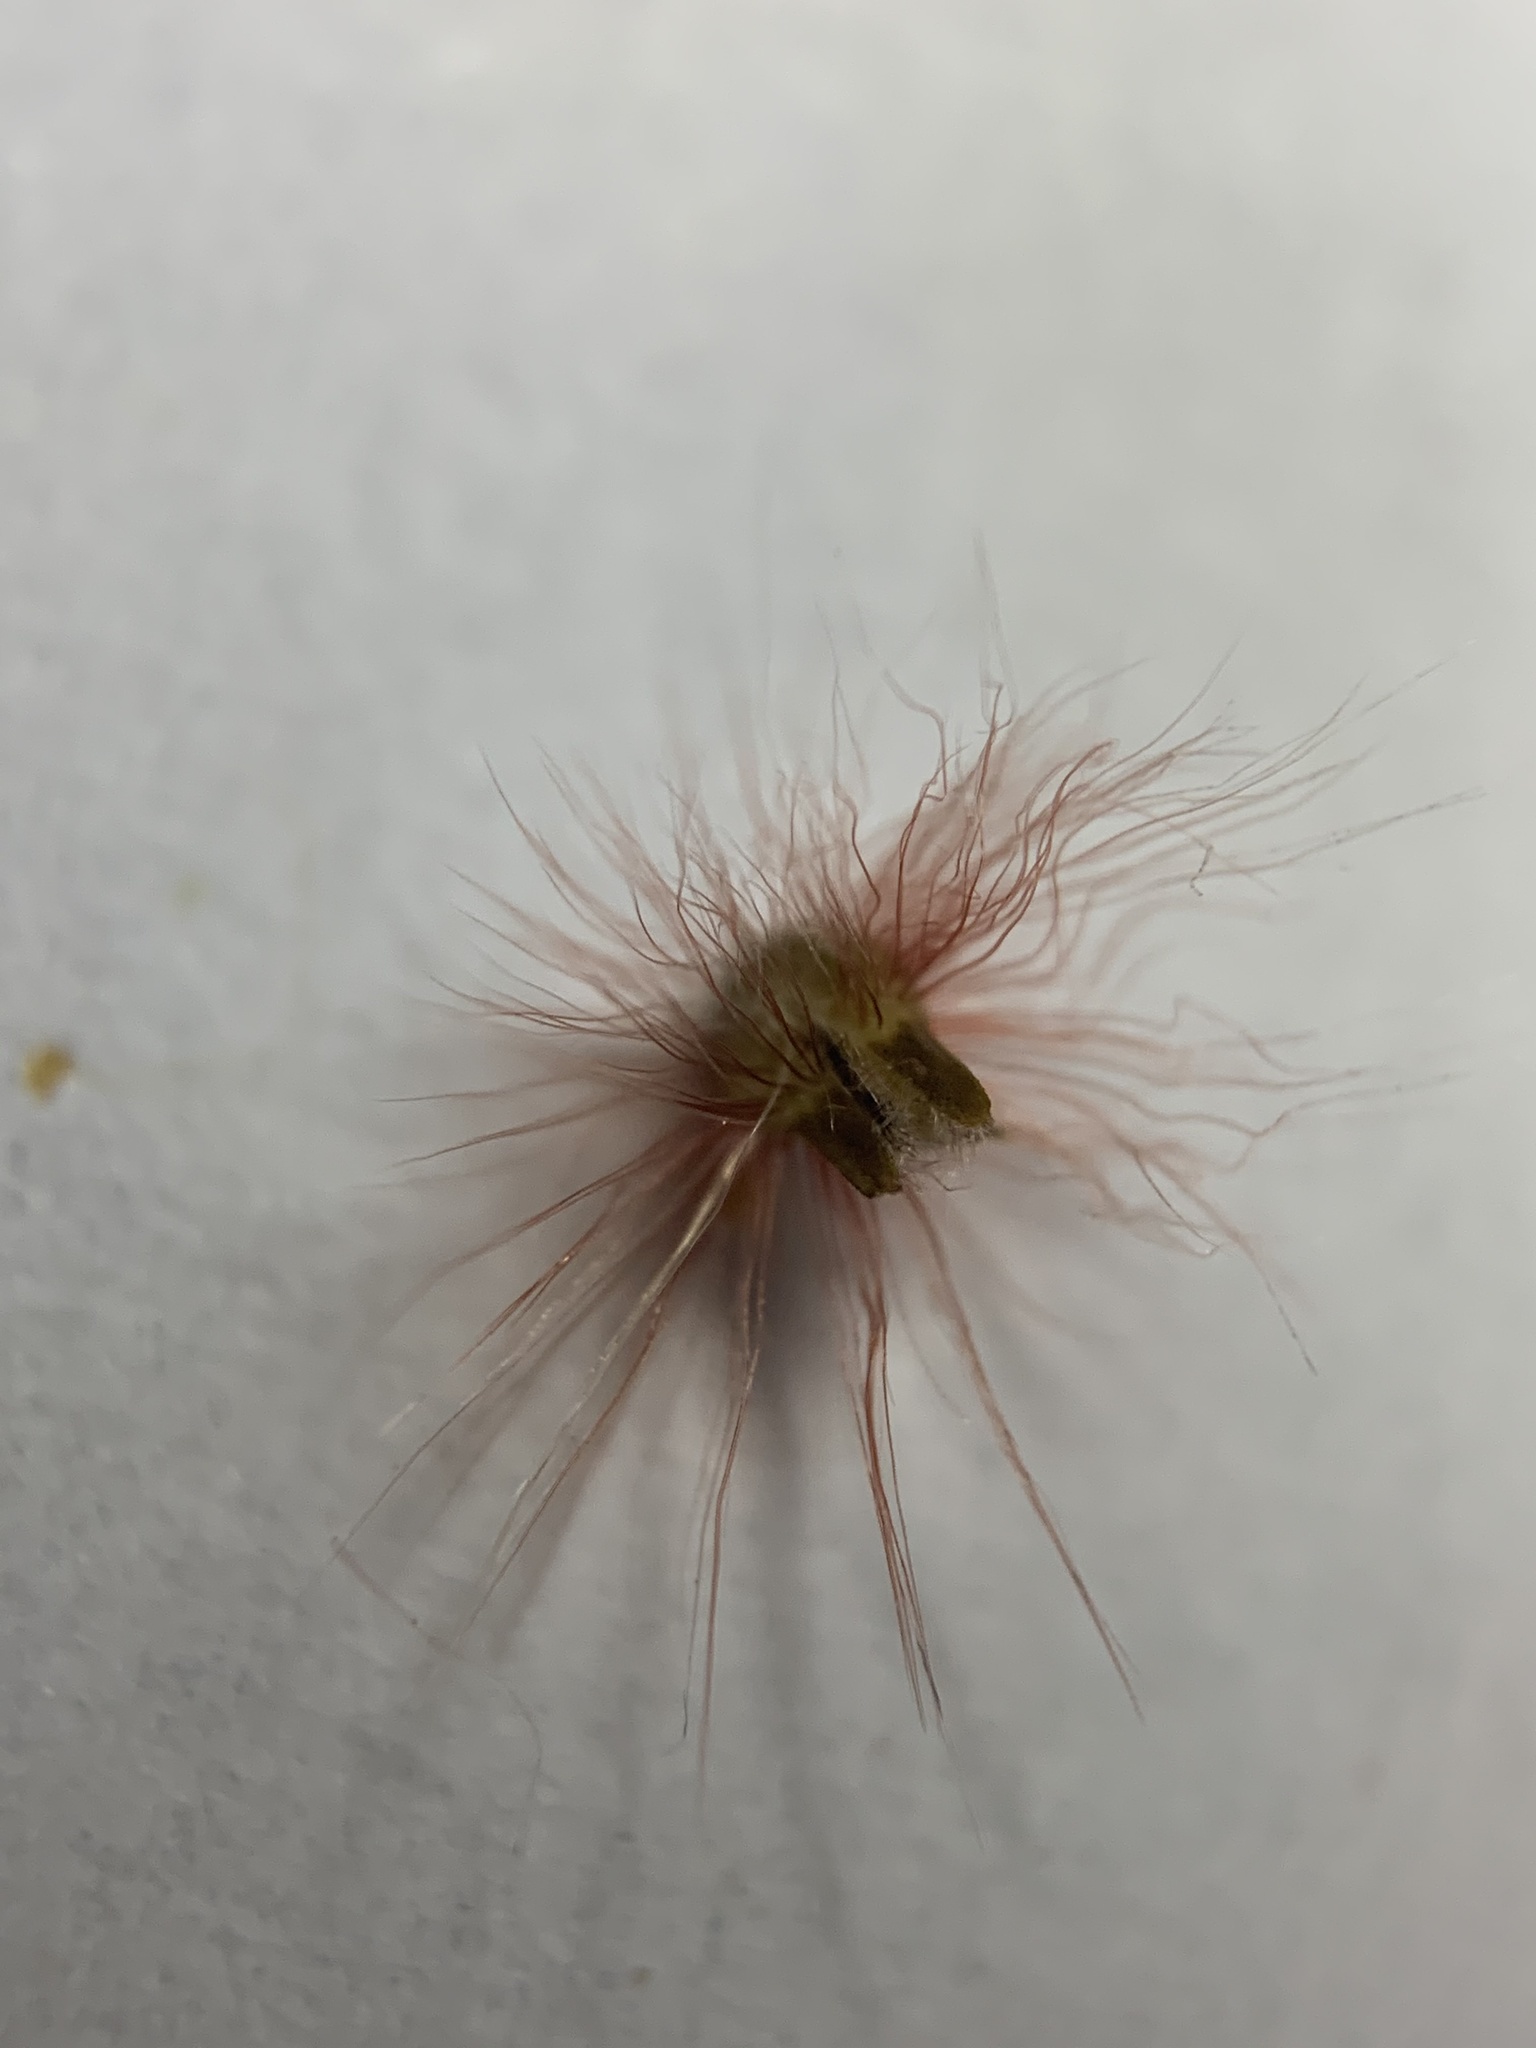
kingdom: Plantae
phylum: Tracheophyta
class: Liliopsida
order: Poales
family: Poaceae
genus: Melinis
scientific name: Melinis repens
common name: Rose natal grass
